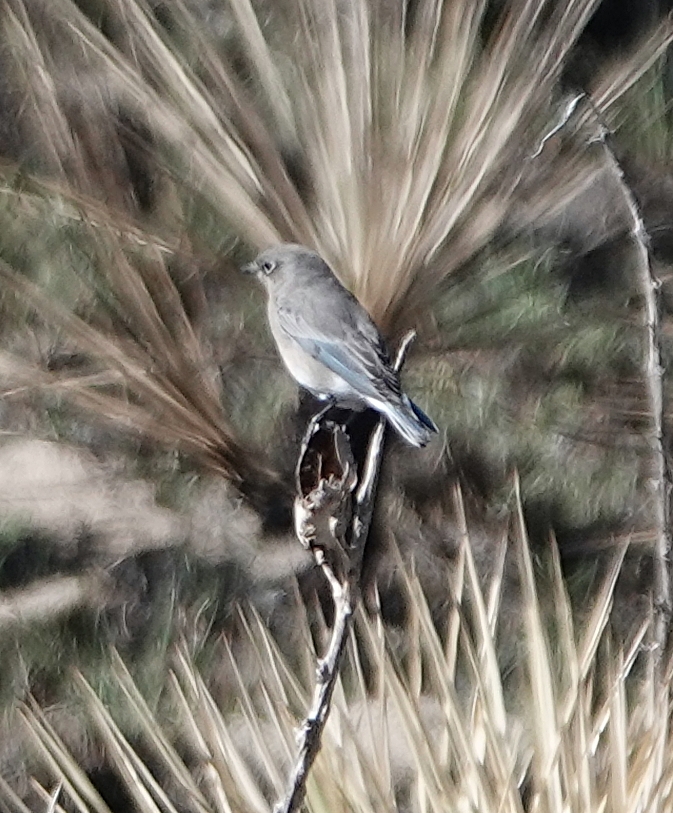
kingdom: Animalia
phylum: Chordata
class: Aves
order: Passeriformes
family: Turdidae
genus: Sialia
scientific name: Sialia currucoides
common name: Mountain bluebird
